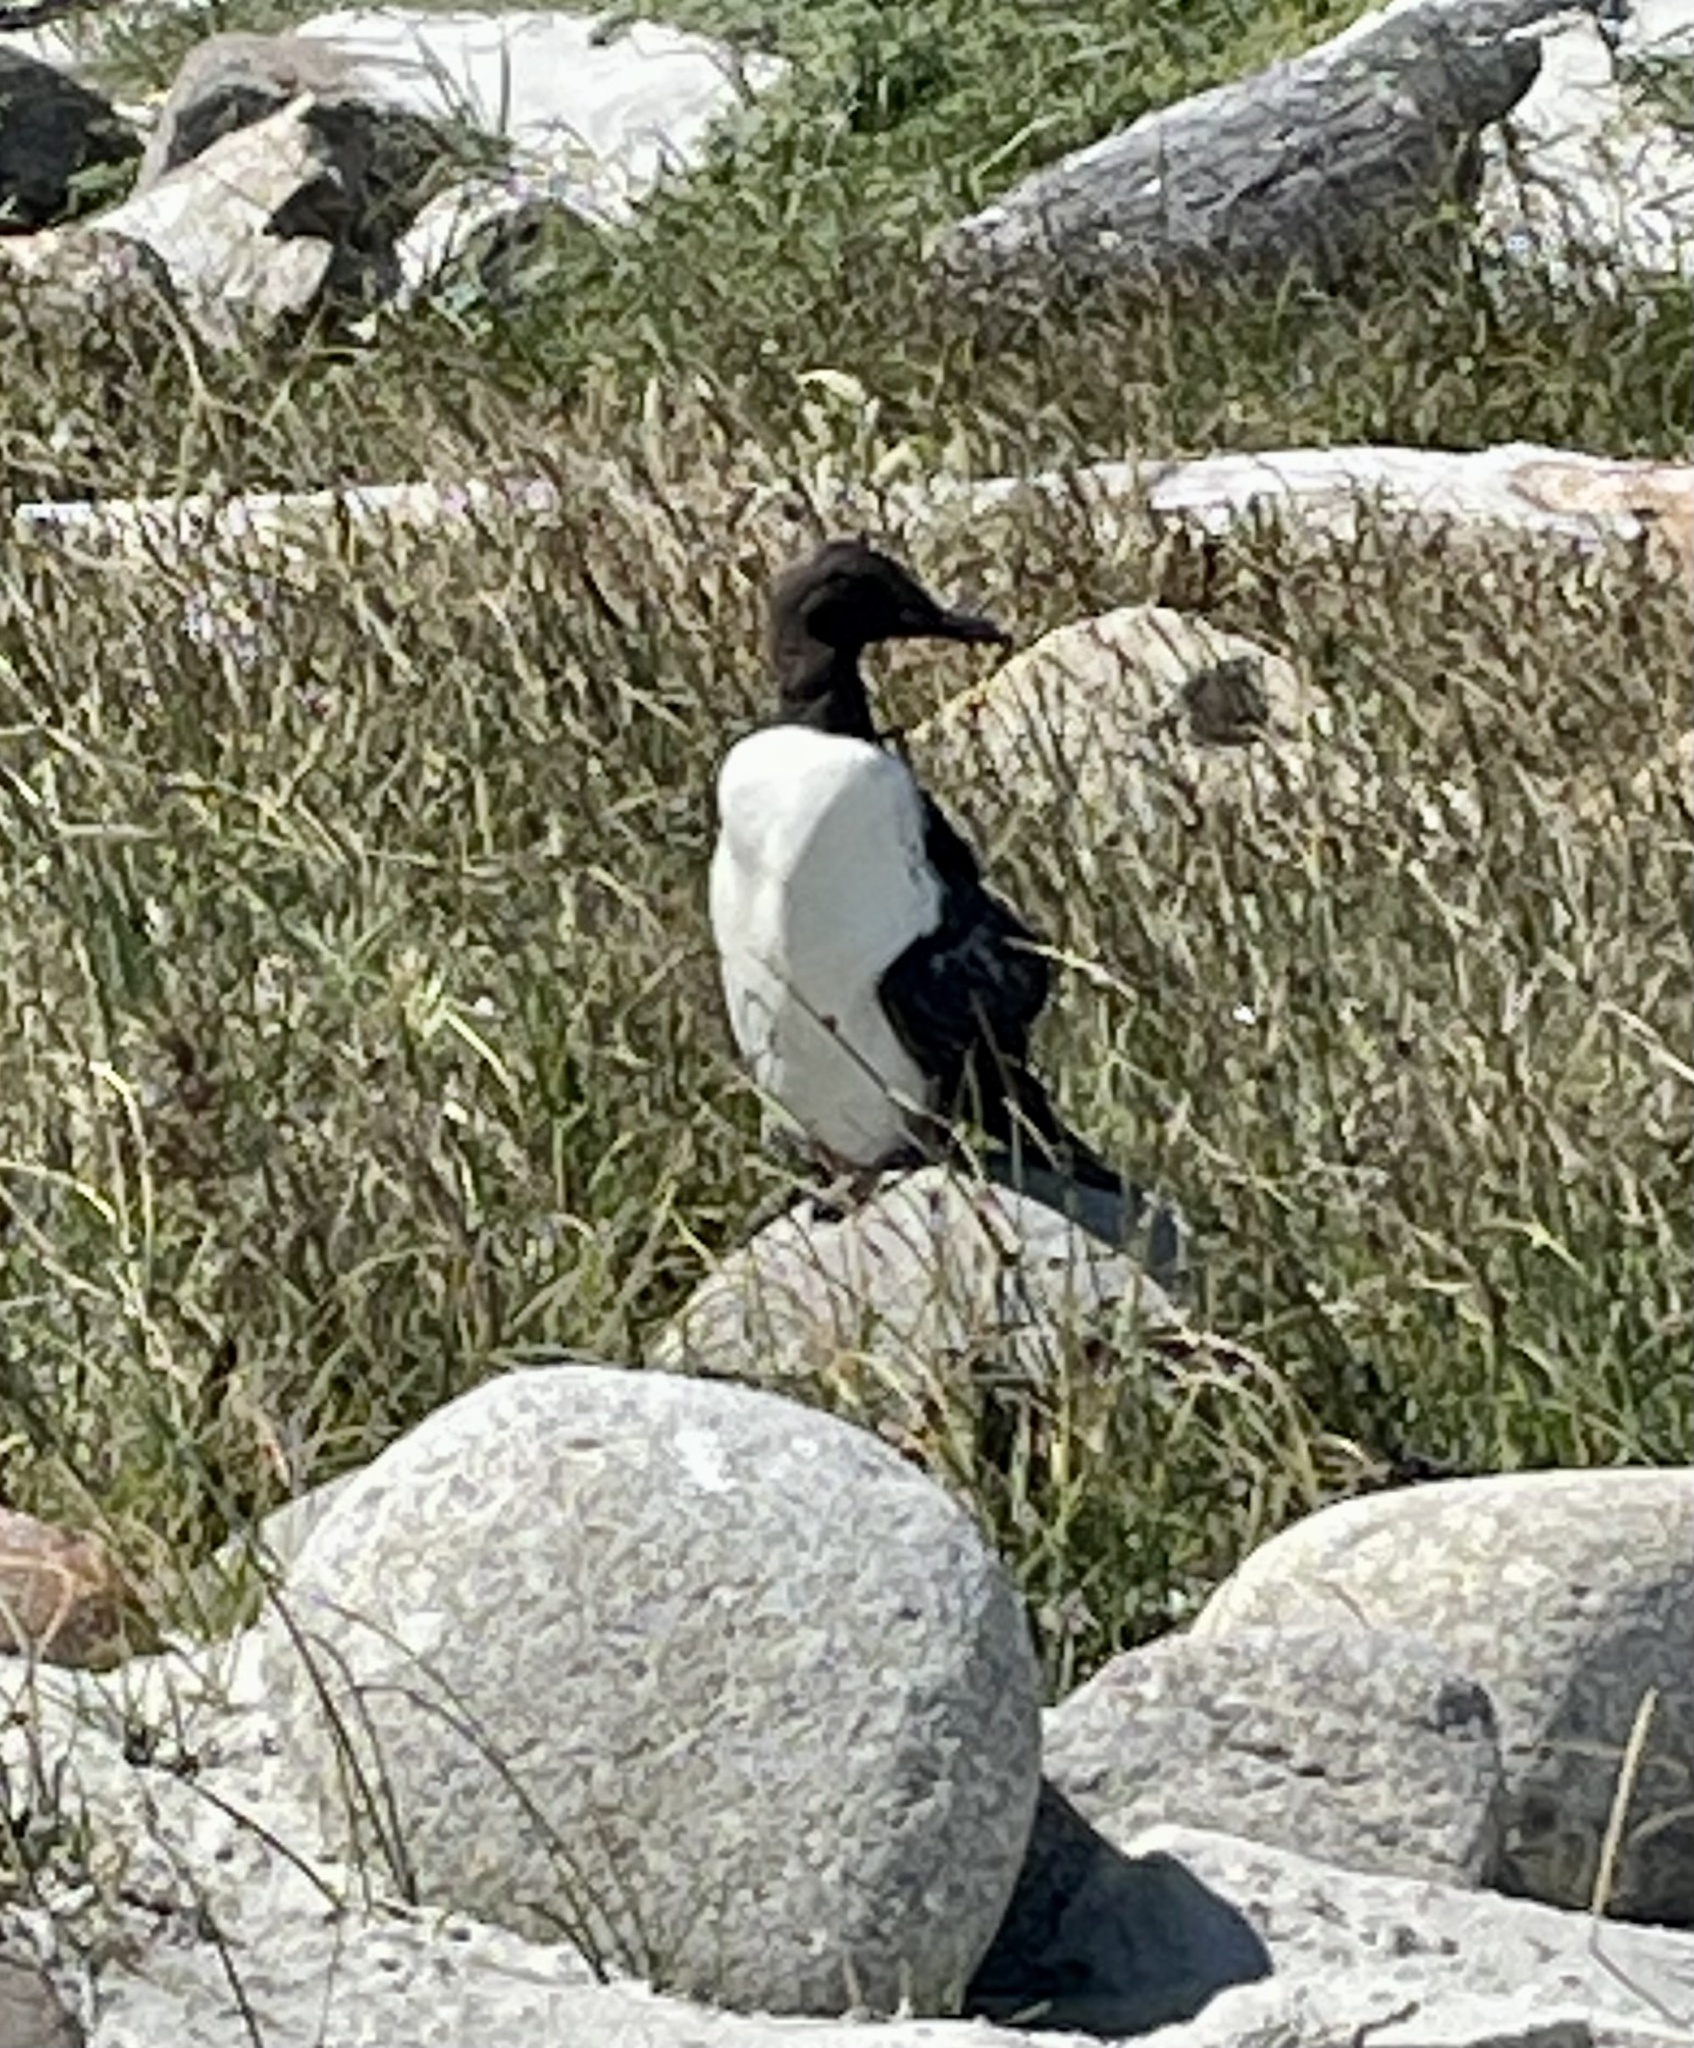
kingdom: Animalia
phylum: Chordata
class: Aves
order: Charadriiformes
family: Alcidae
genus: Uria
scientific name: Uria aalge
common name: Common murre
